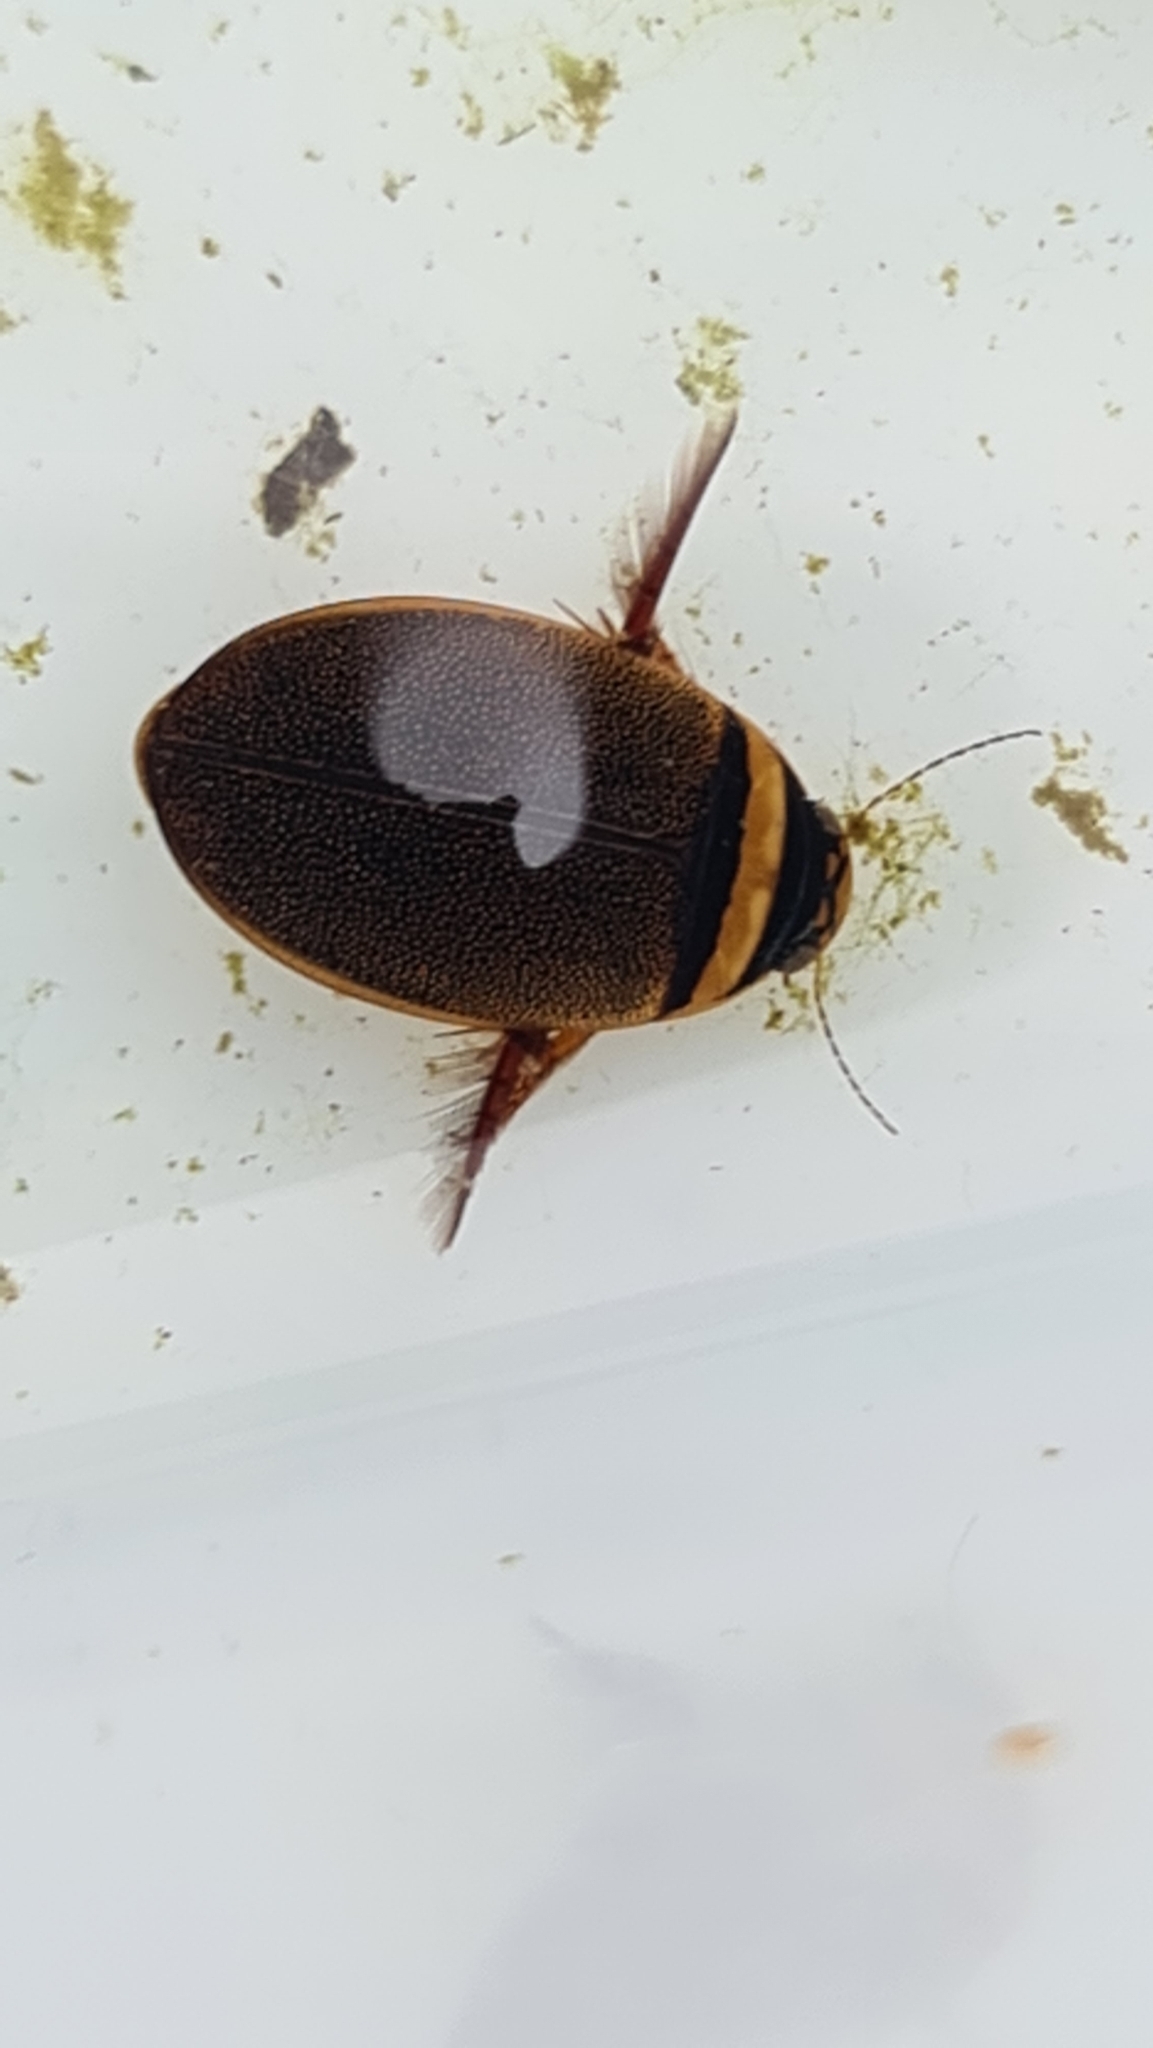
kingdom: Animalia
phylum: Arthropoda
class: Insecta
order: Coleoptera
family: Dytiscidae
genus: Graphoderus
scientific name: Graphoderus cinereus
